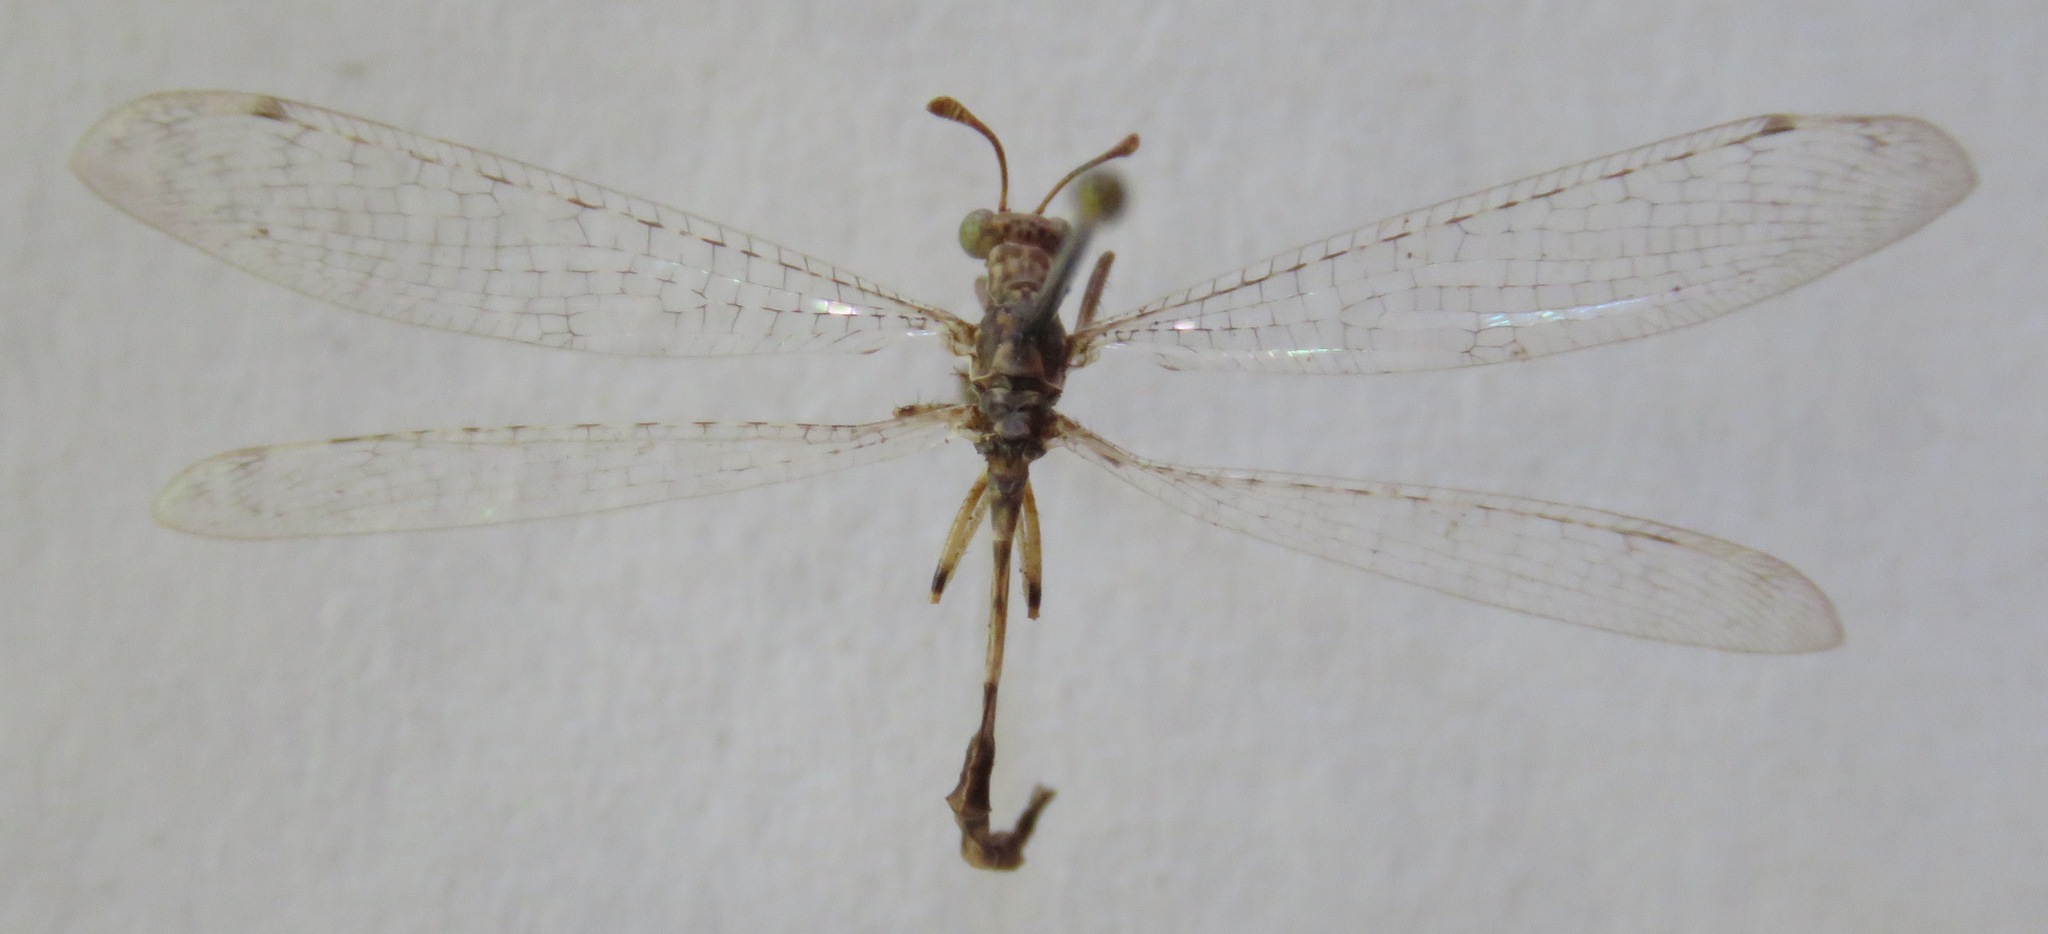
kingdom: Animalia
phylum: Arthropoda
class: Insecta
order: Neuroptera
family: Myrmeleontidae
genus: Dimarella
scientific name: Dimarella mixteca
